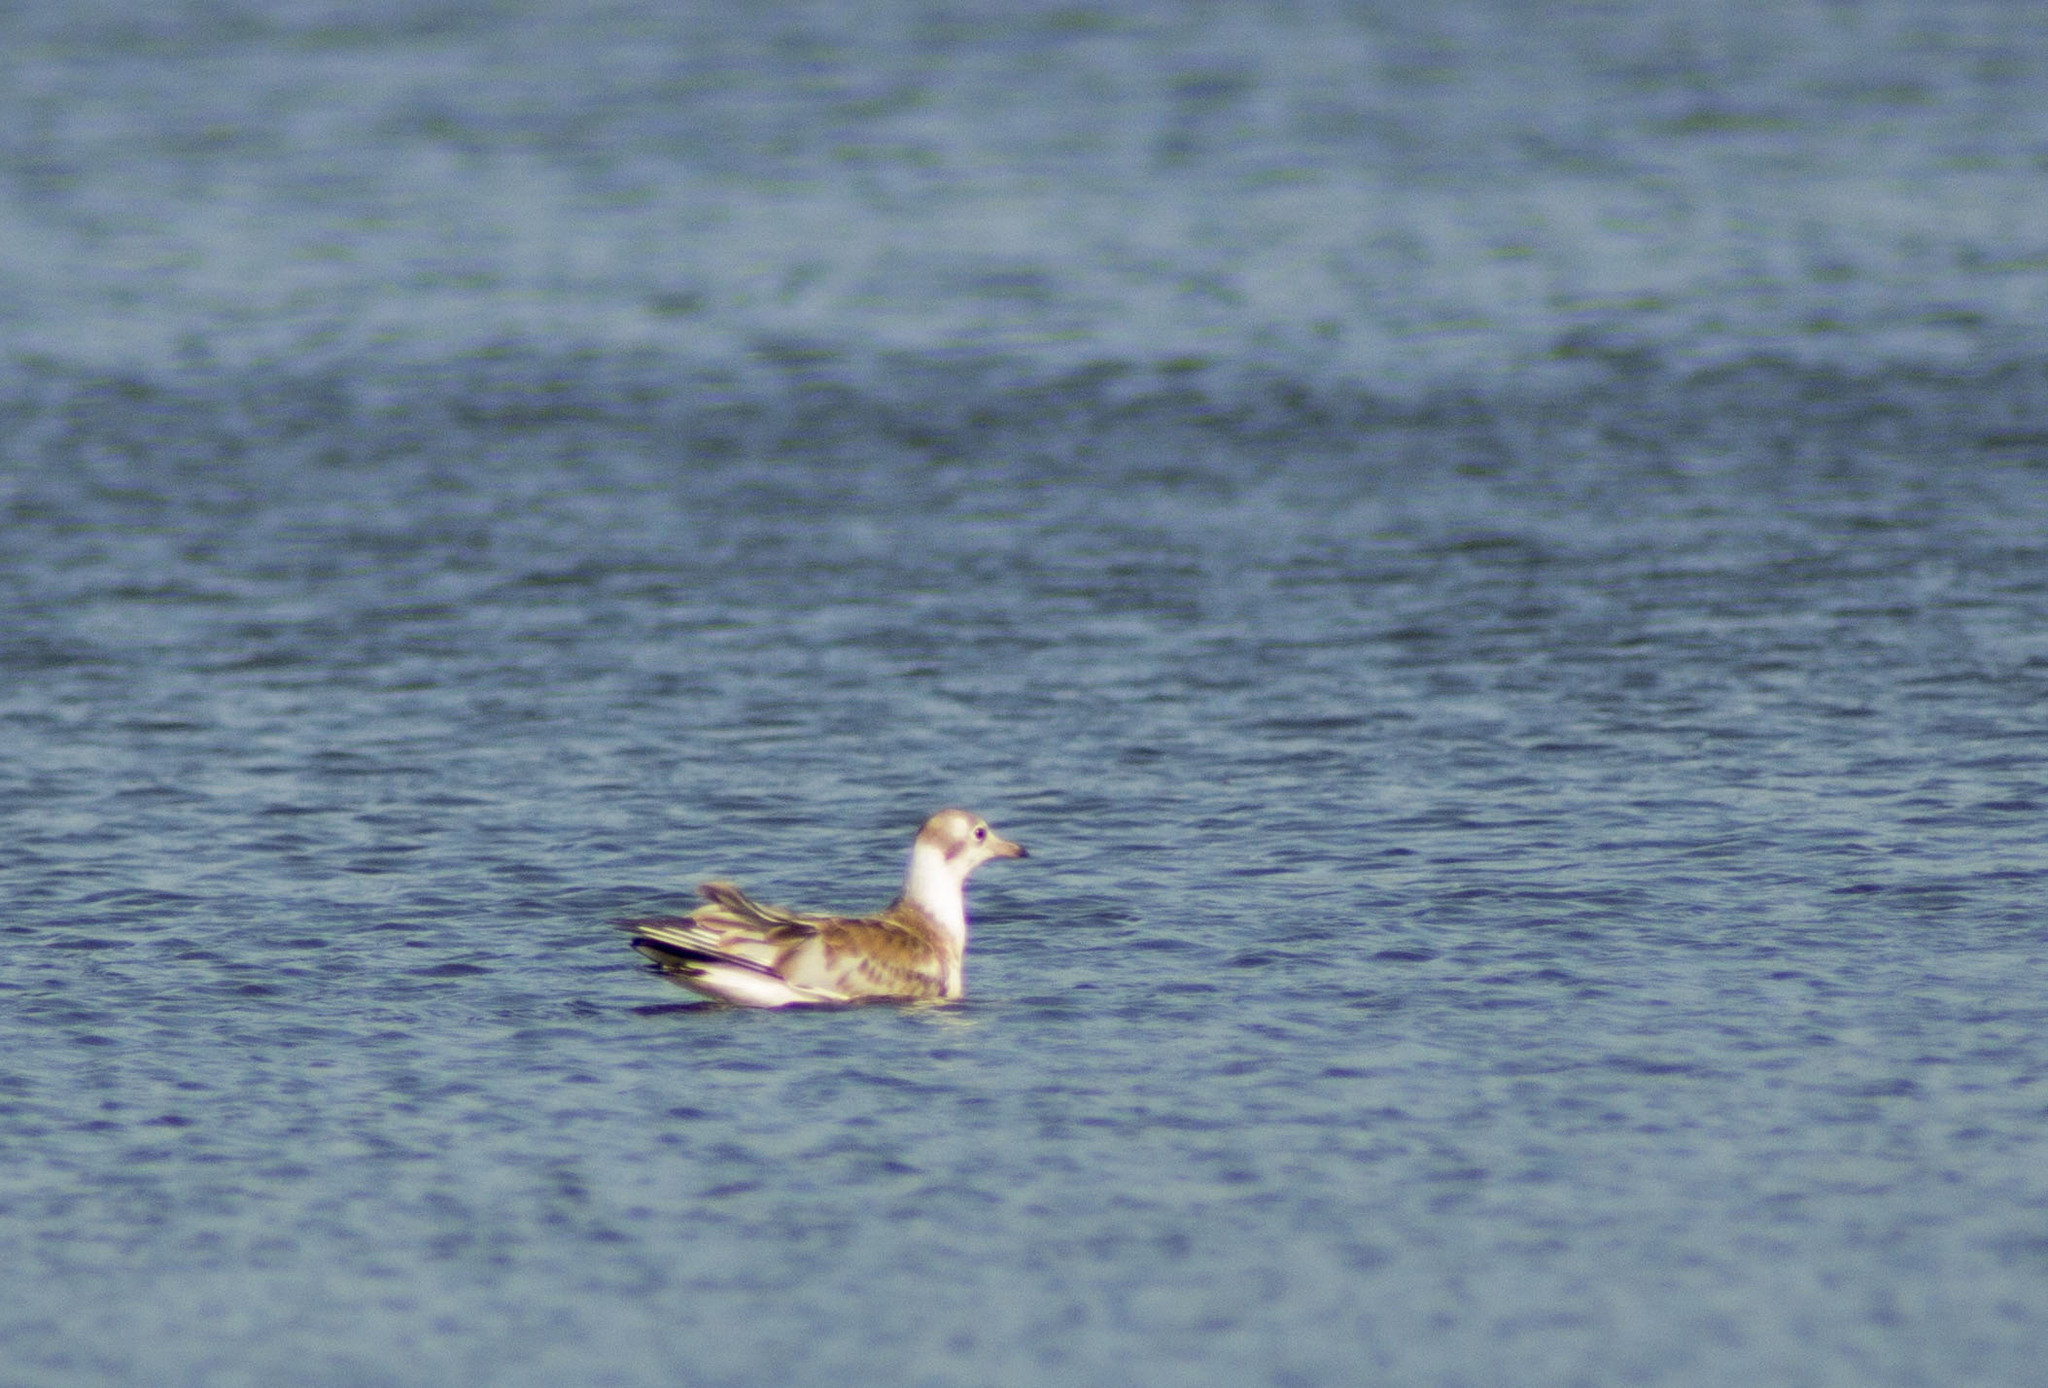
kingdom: Animalia
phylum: Chordata
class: Aves
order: Charadriiformes
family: Laridae
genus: Chroicocephalus
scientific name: Chroicocephalus ridibundus
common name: Black-headed gull
